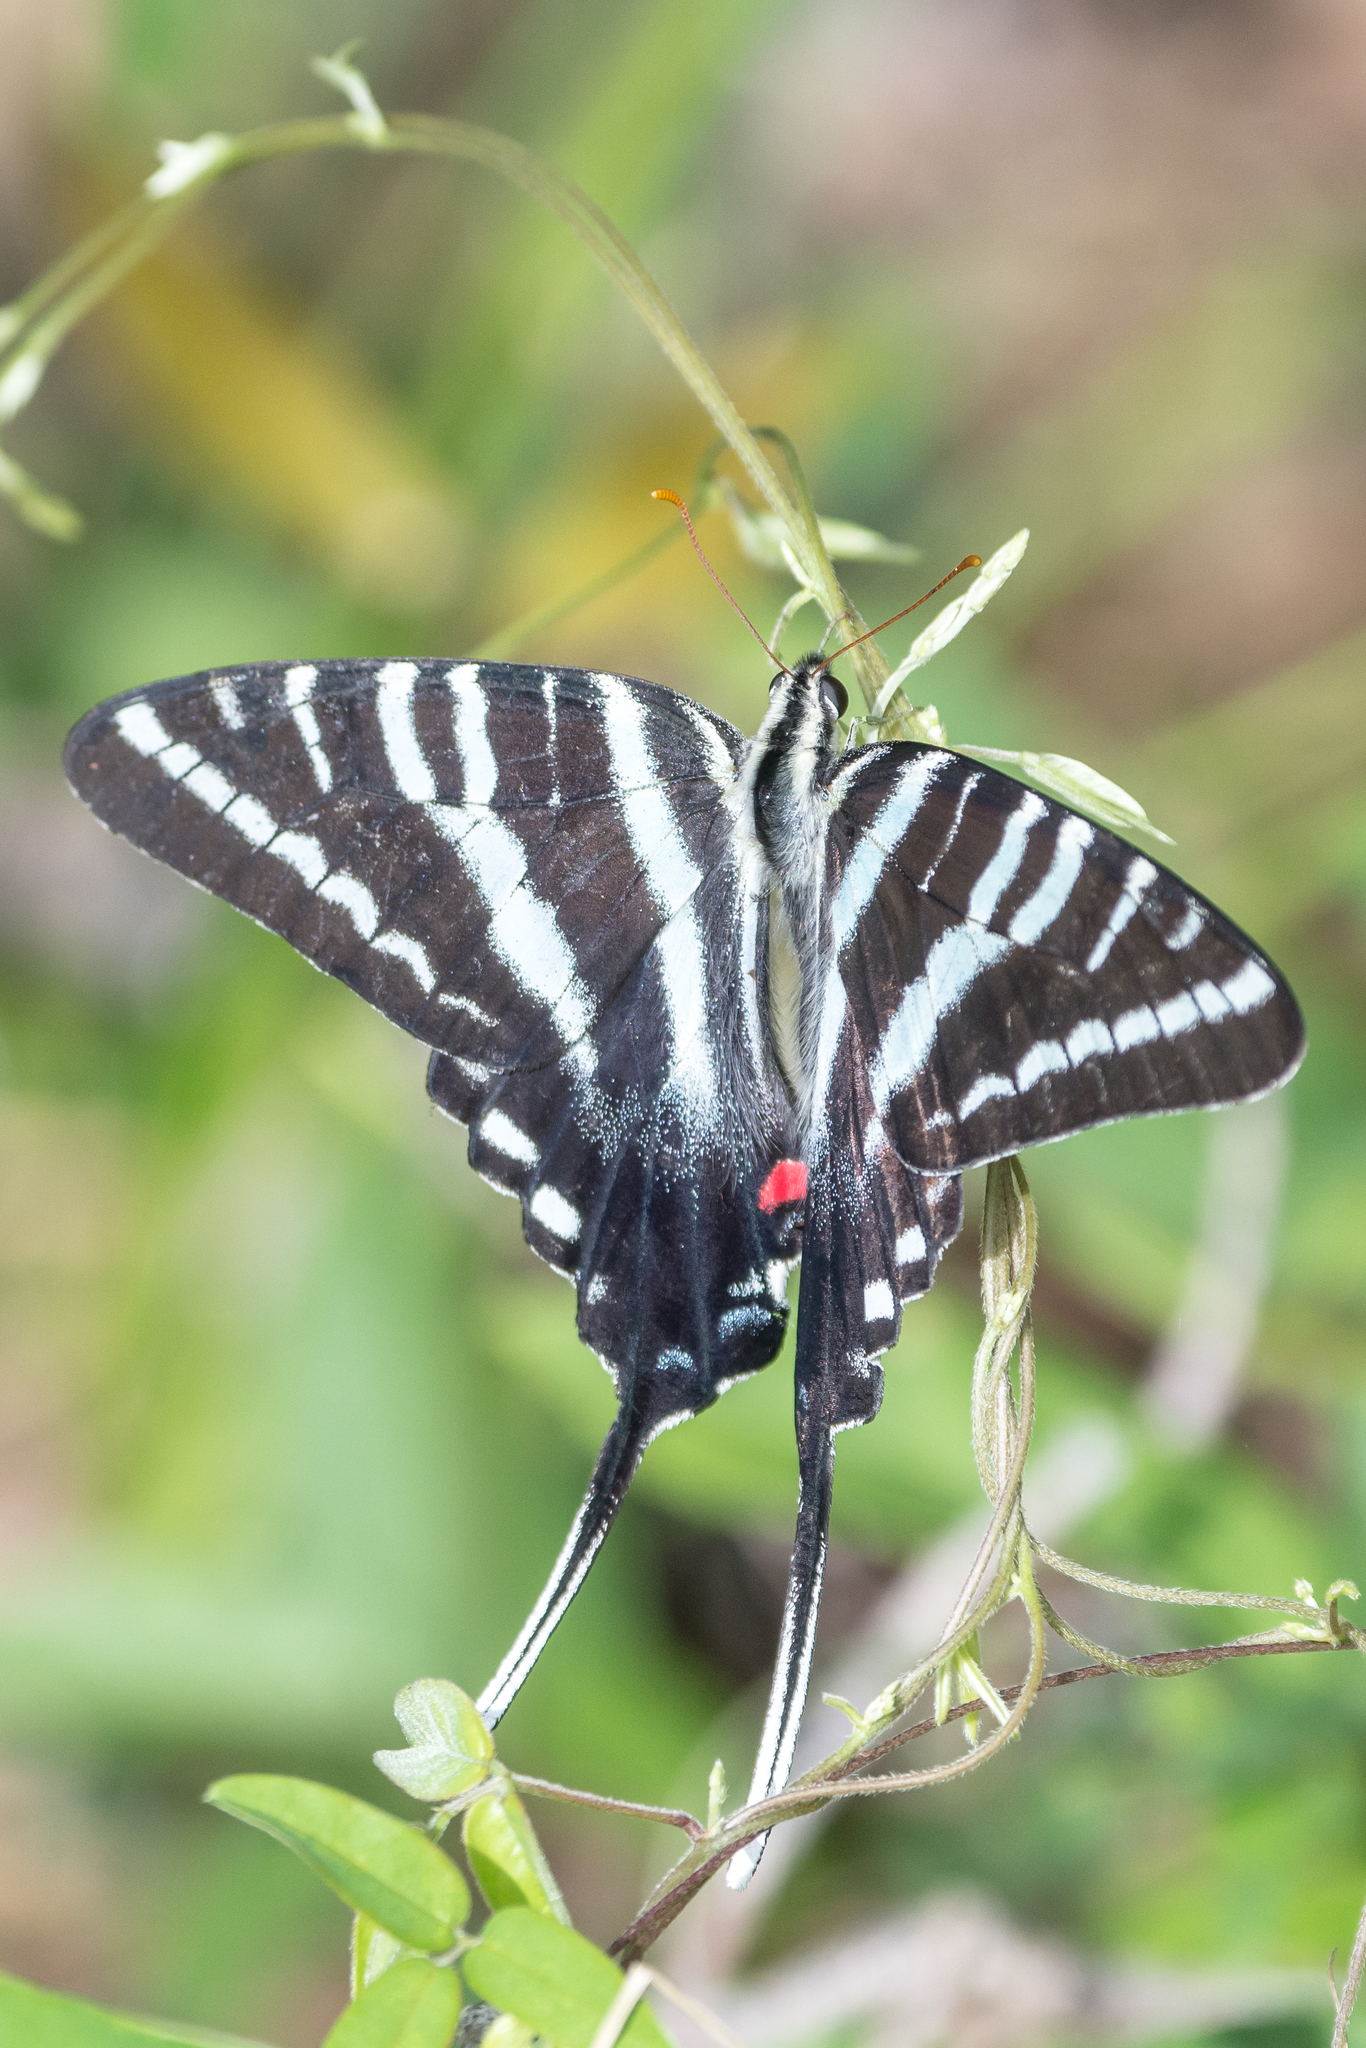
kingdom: Animalia
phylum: Arthropoda
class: Insecta
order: Lepidoptera
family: Papilionidae
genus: Protographium
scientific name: Protographium marcellus
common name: Zebra swallowtail
